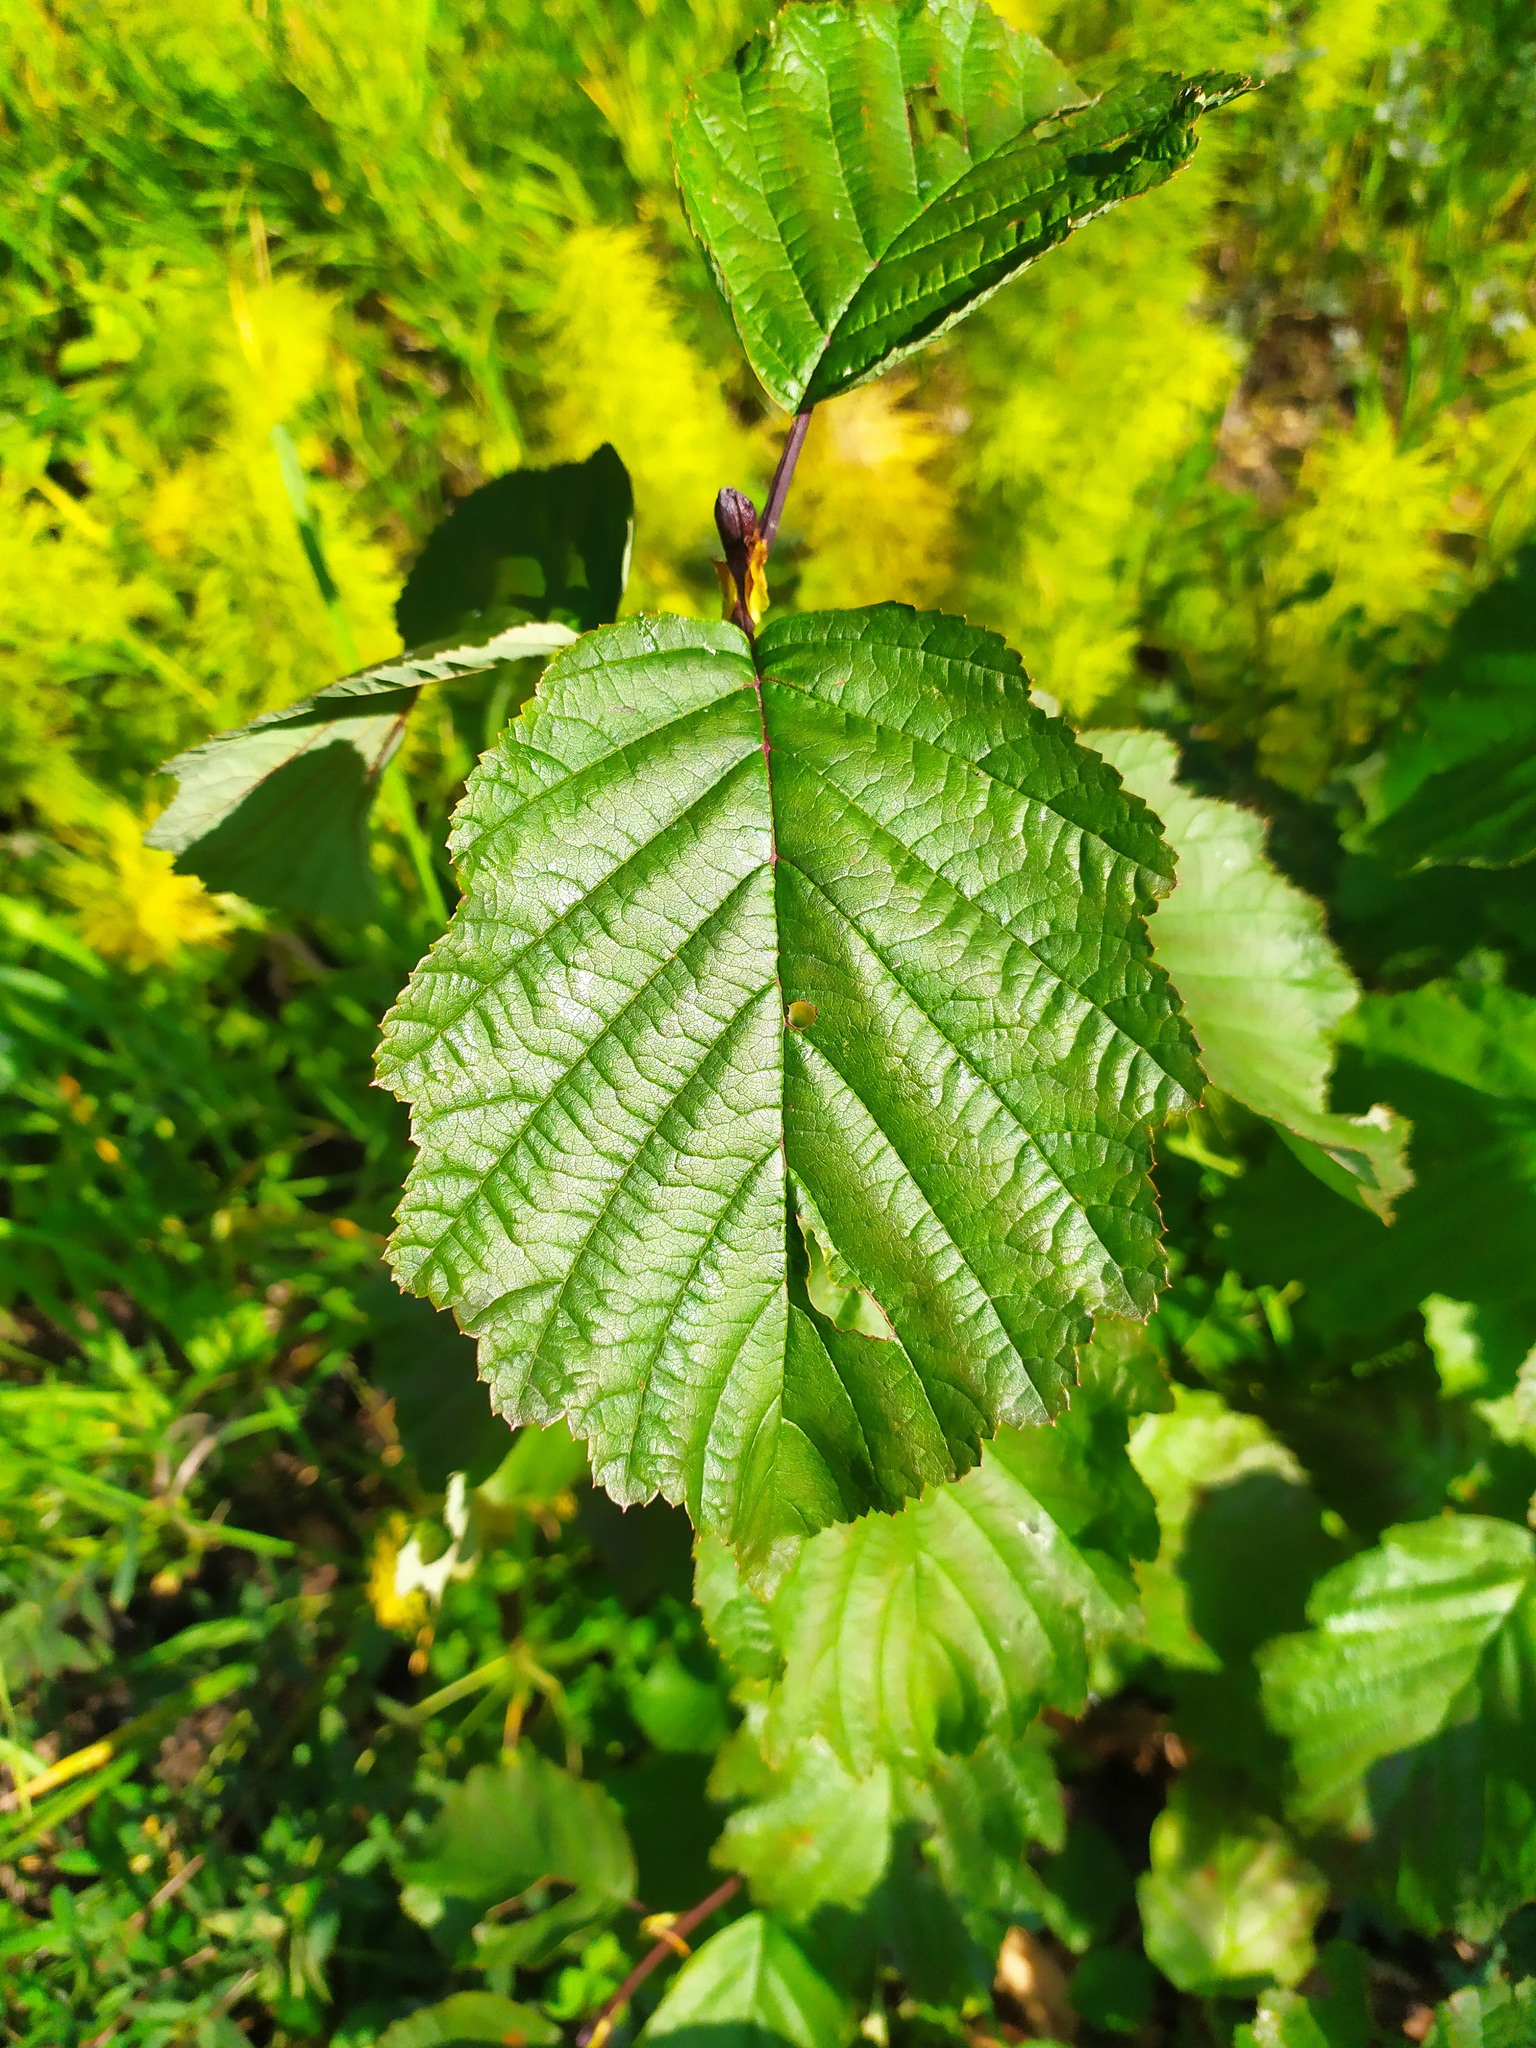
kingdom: Plantae
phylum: Tracheophyta
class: Magnoliopsida
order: Fagales
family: Betulaceae
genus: Alnus
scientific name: Alnus incana
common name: Grey alder
